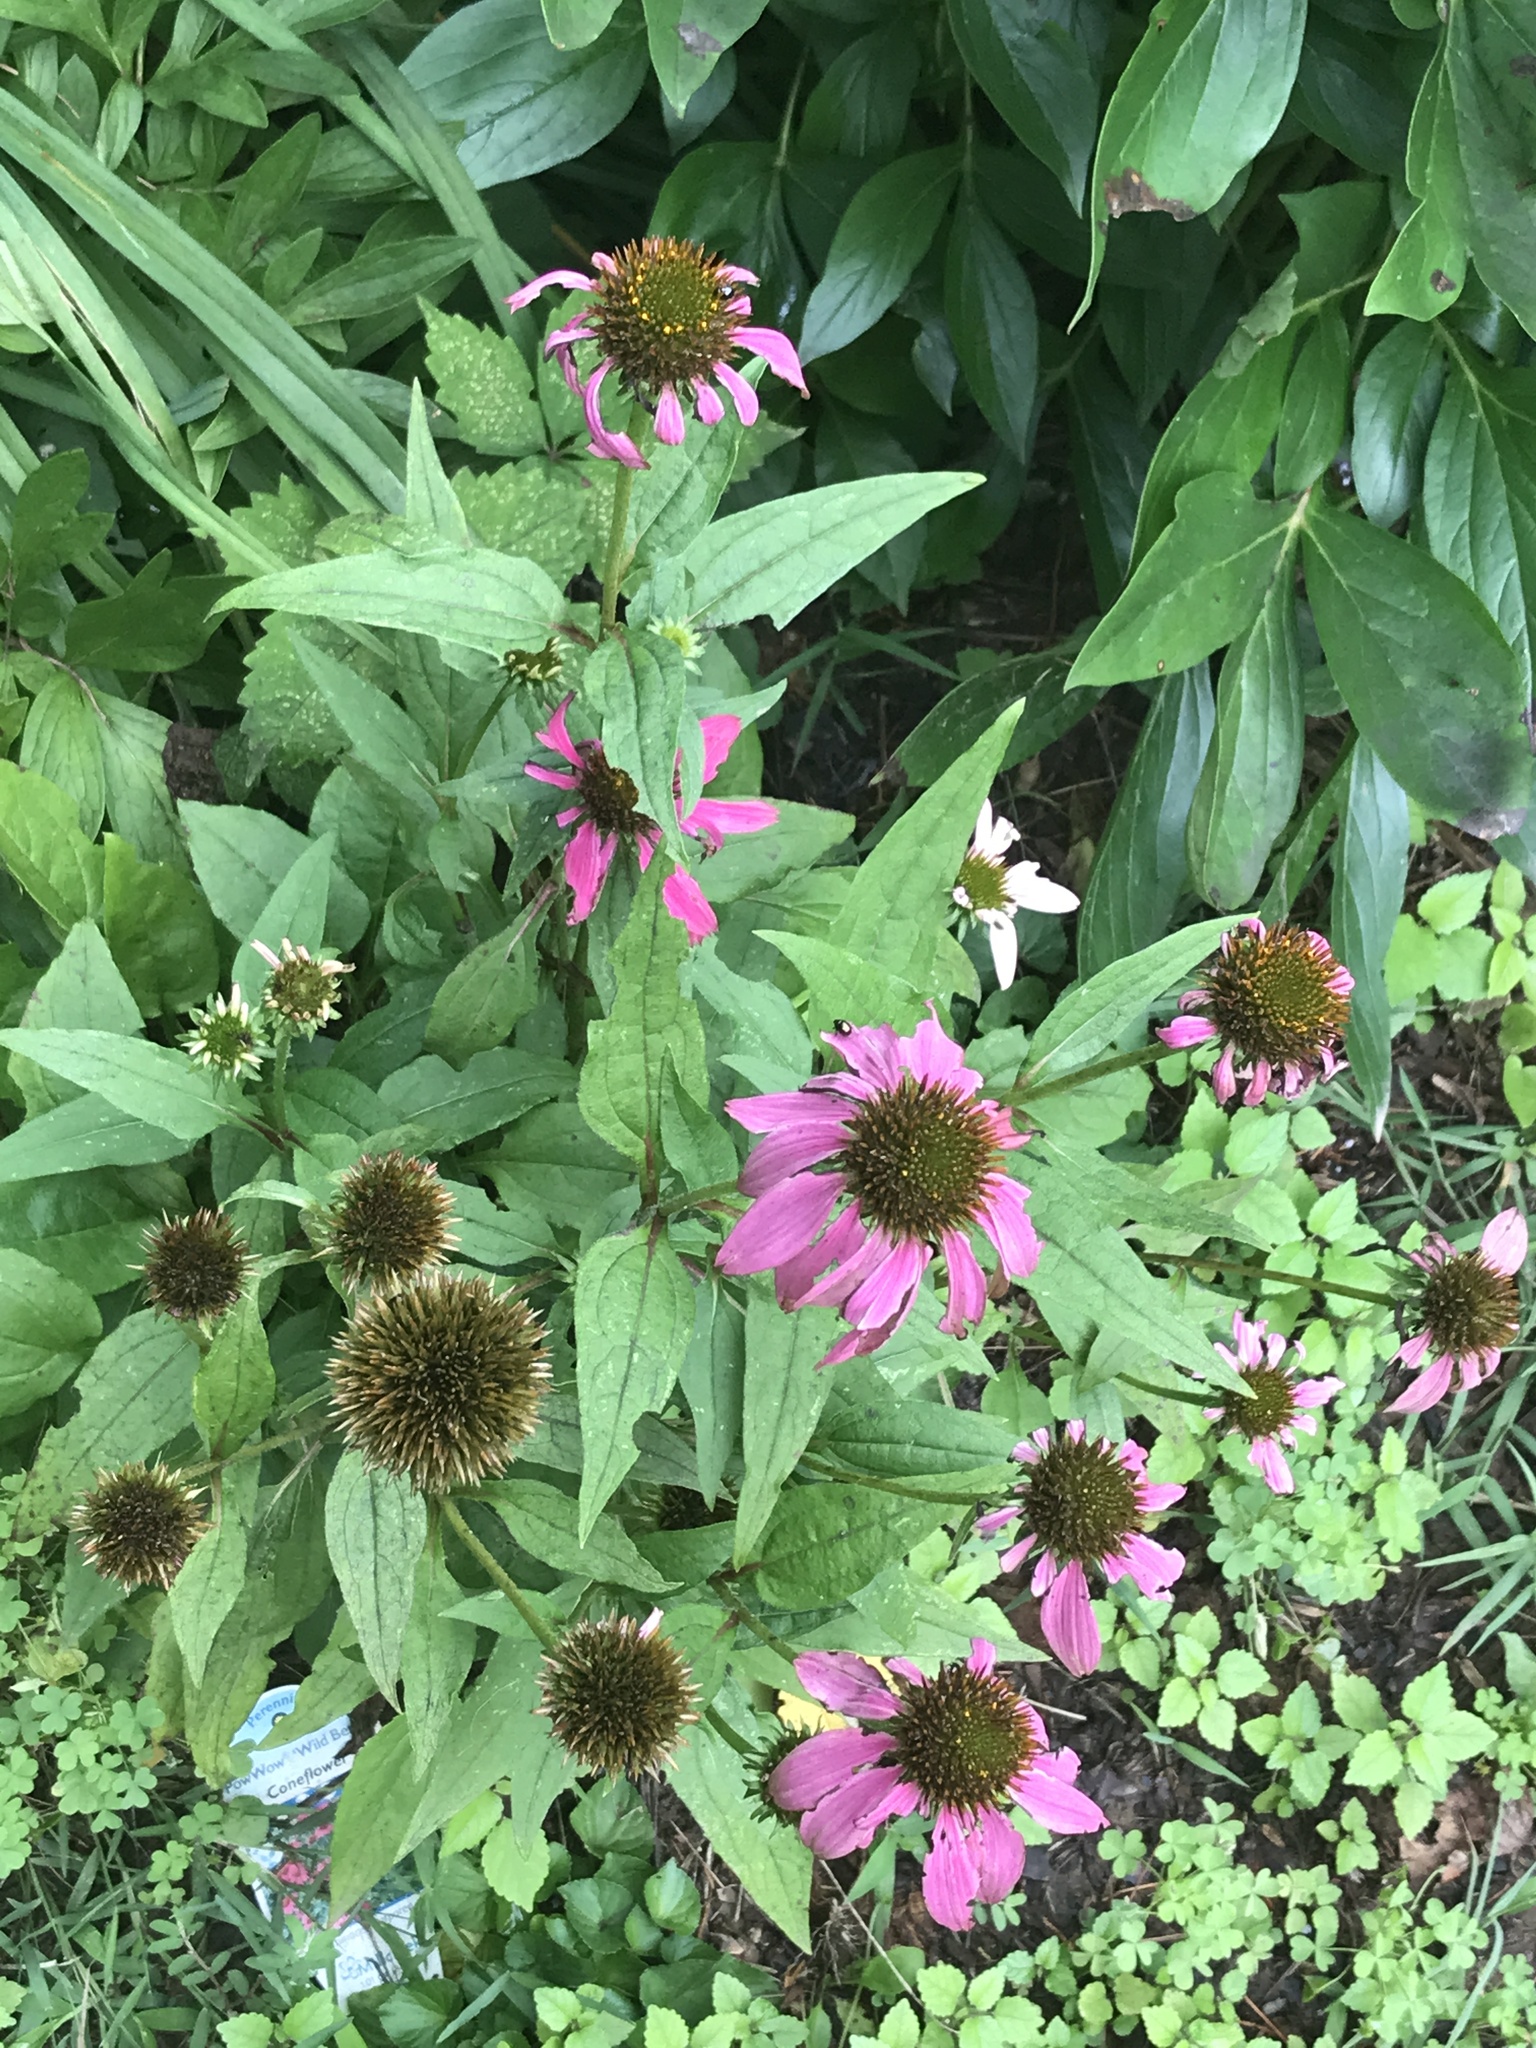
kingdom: Plantae
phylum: Tracheophyta
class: Magnoliopsida
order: Asterales
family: Asteraceae
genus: Echinacea
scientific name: Echinacea purpurea
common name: Broad-leaved purple coneflower
